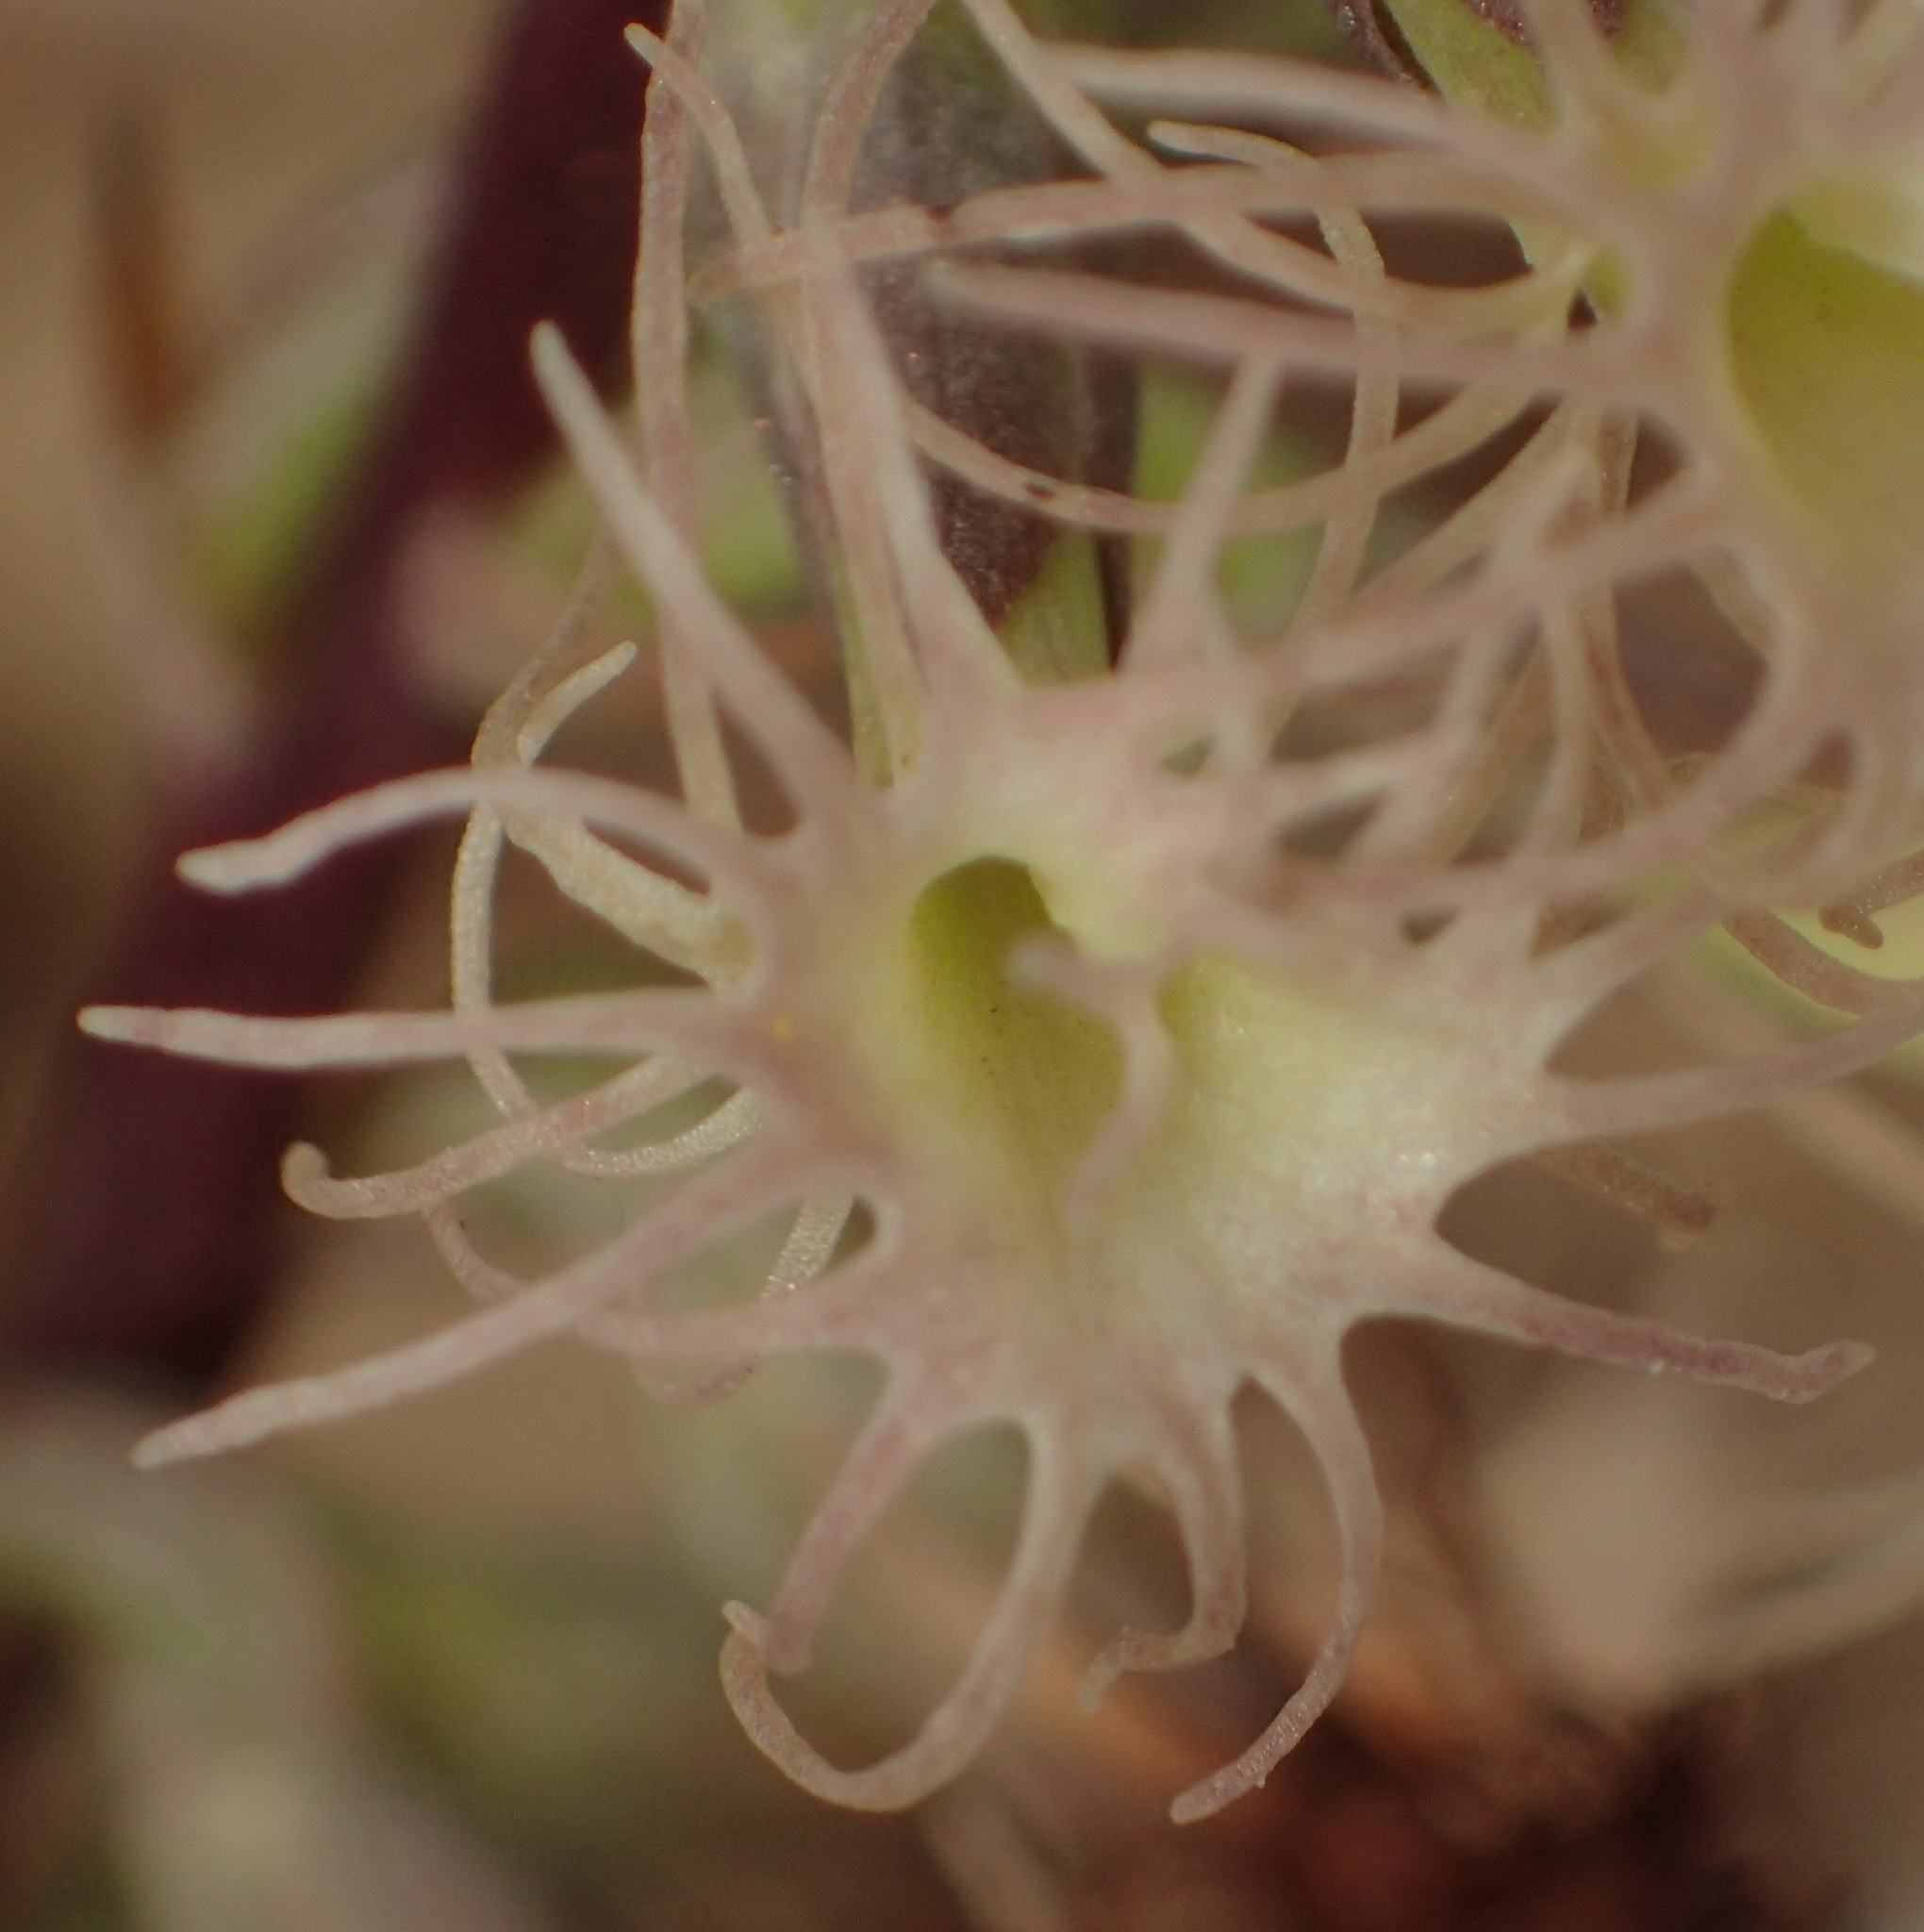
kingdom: Plantae
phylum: Tracheophyta
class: Liliopsida
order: Asparagales
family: Orchidaceae
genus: Holothrix
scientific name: Holothrix schlechteriana
